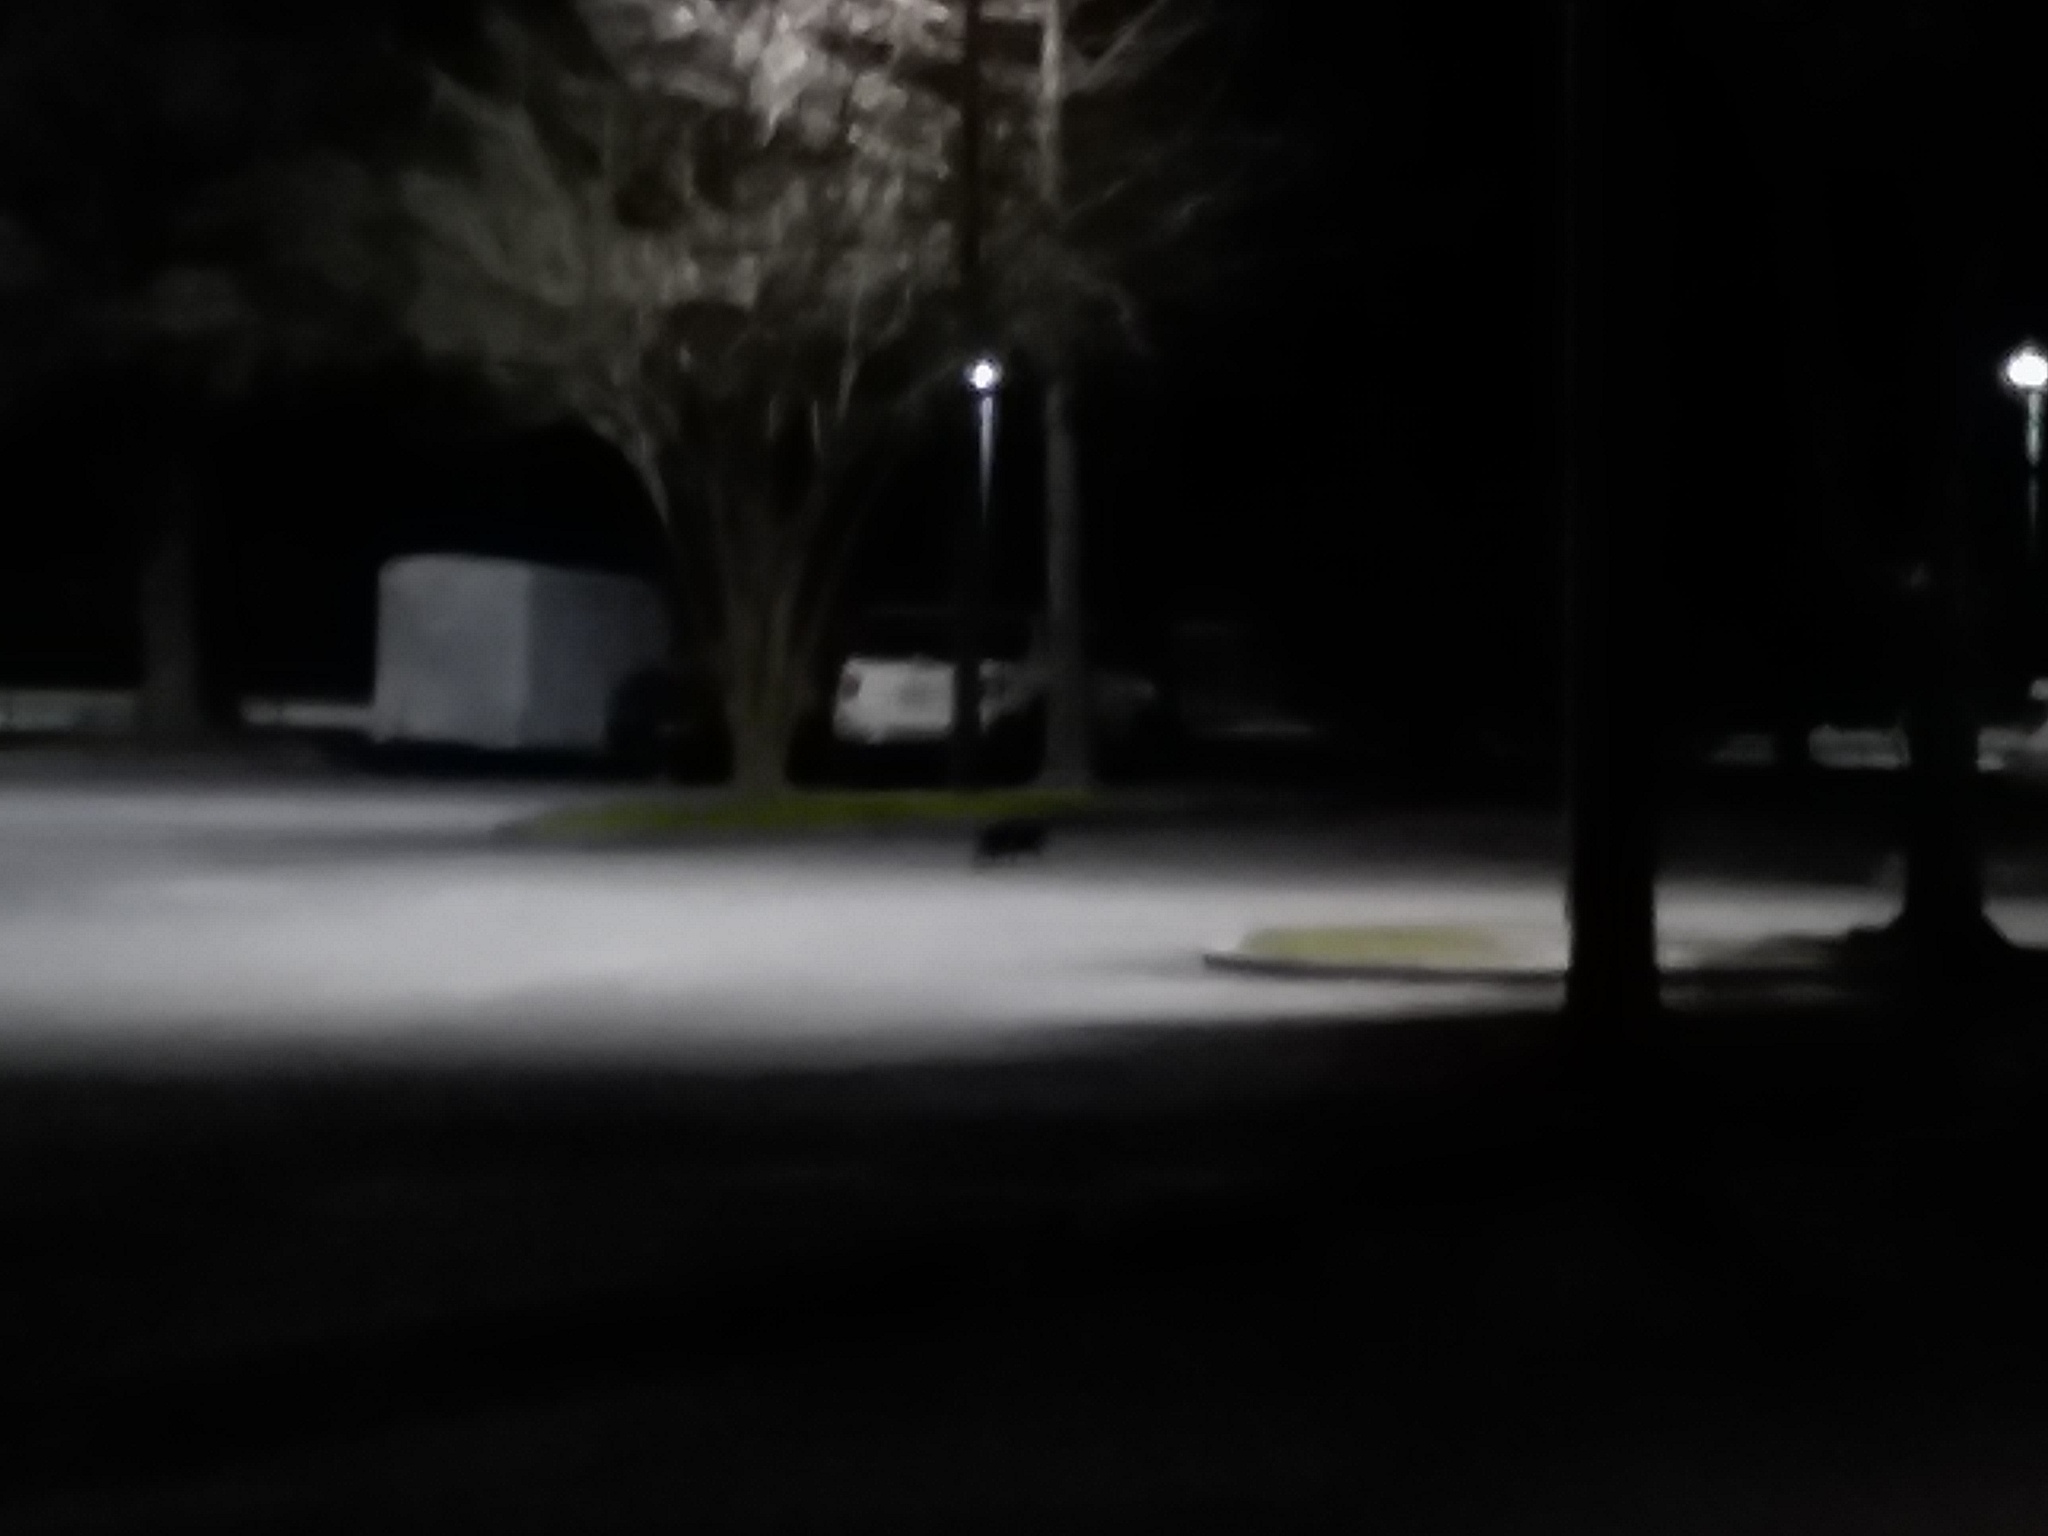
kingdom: Animalia
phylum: Chordata
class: Mammalia
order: Carnivora
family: Felidae
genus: Felis
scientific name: Felis catus
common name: Domestic cat
